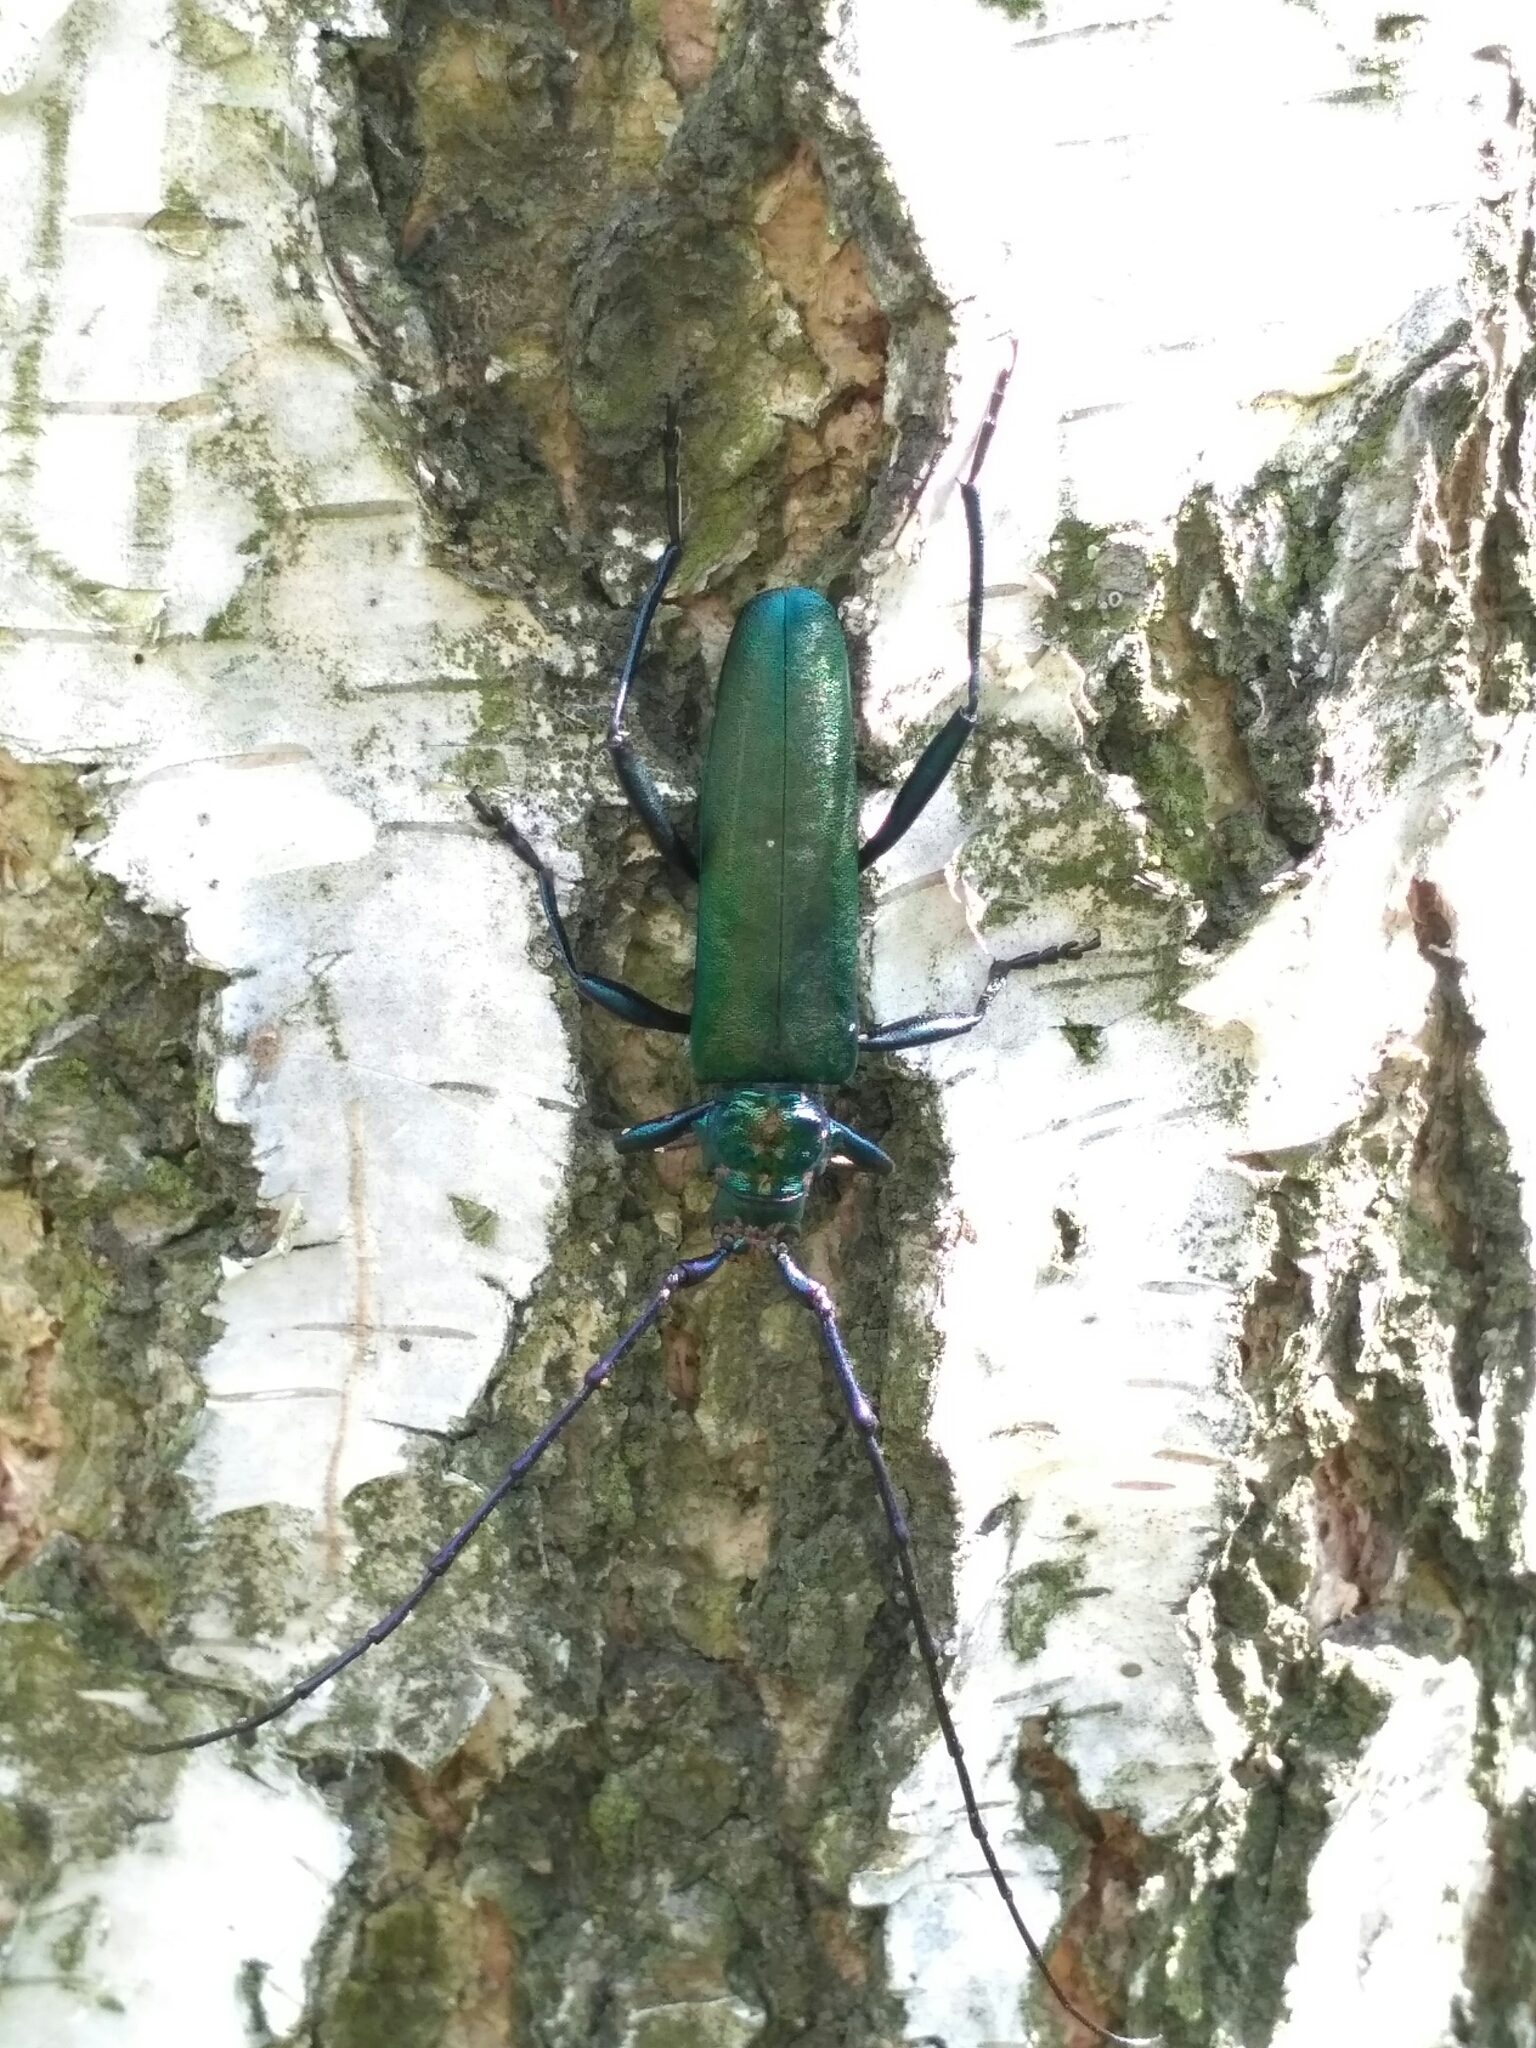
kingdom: Animalia
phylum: Arthropoda
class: Insecta
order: Coleoptera
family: Cerambycidae
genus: Aromia
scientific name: Aromia moschata
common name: Musk beetle
